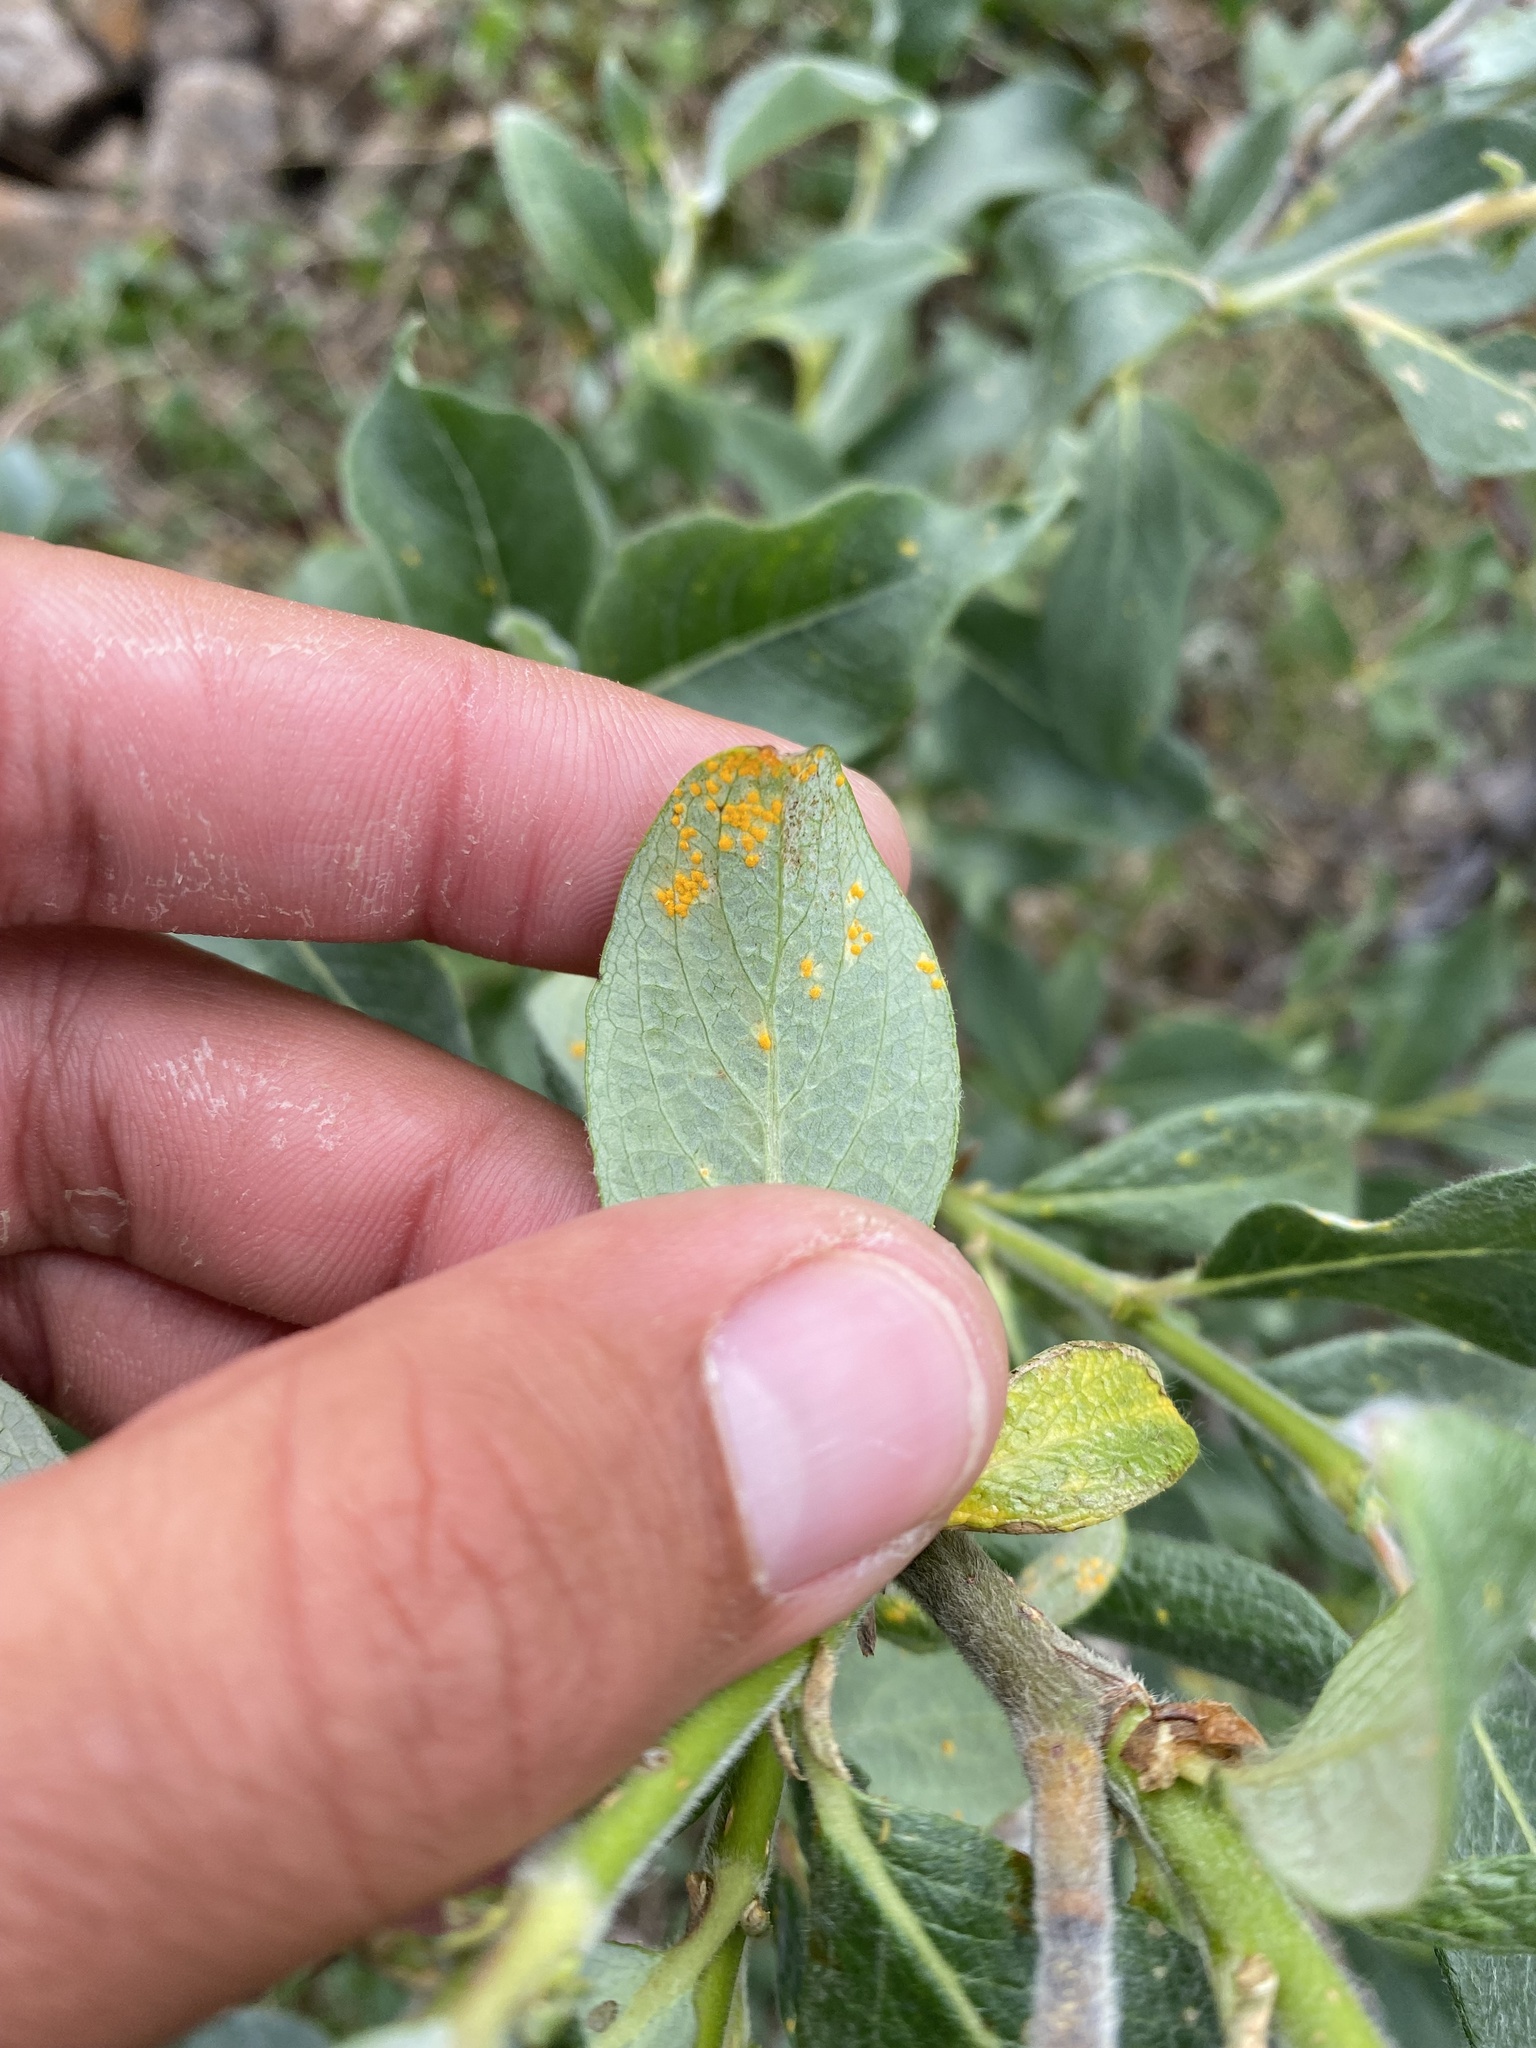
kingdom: Plantae
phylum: Tracheophyta
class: Magnoliopsida
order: Malpighiales
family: Salicaceae
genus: Salix
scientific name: Salix lanata
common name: Woolly willow
